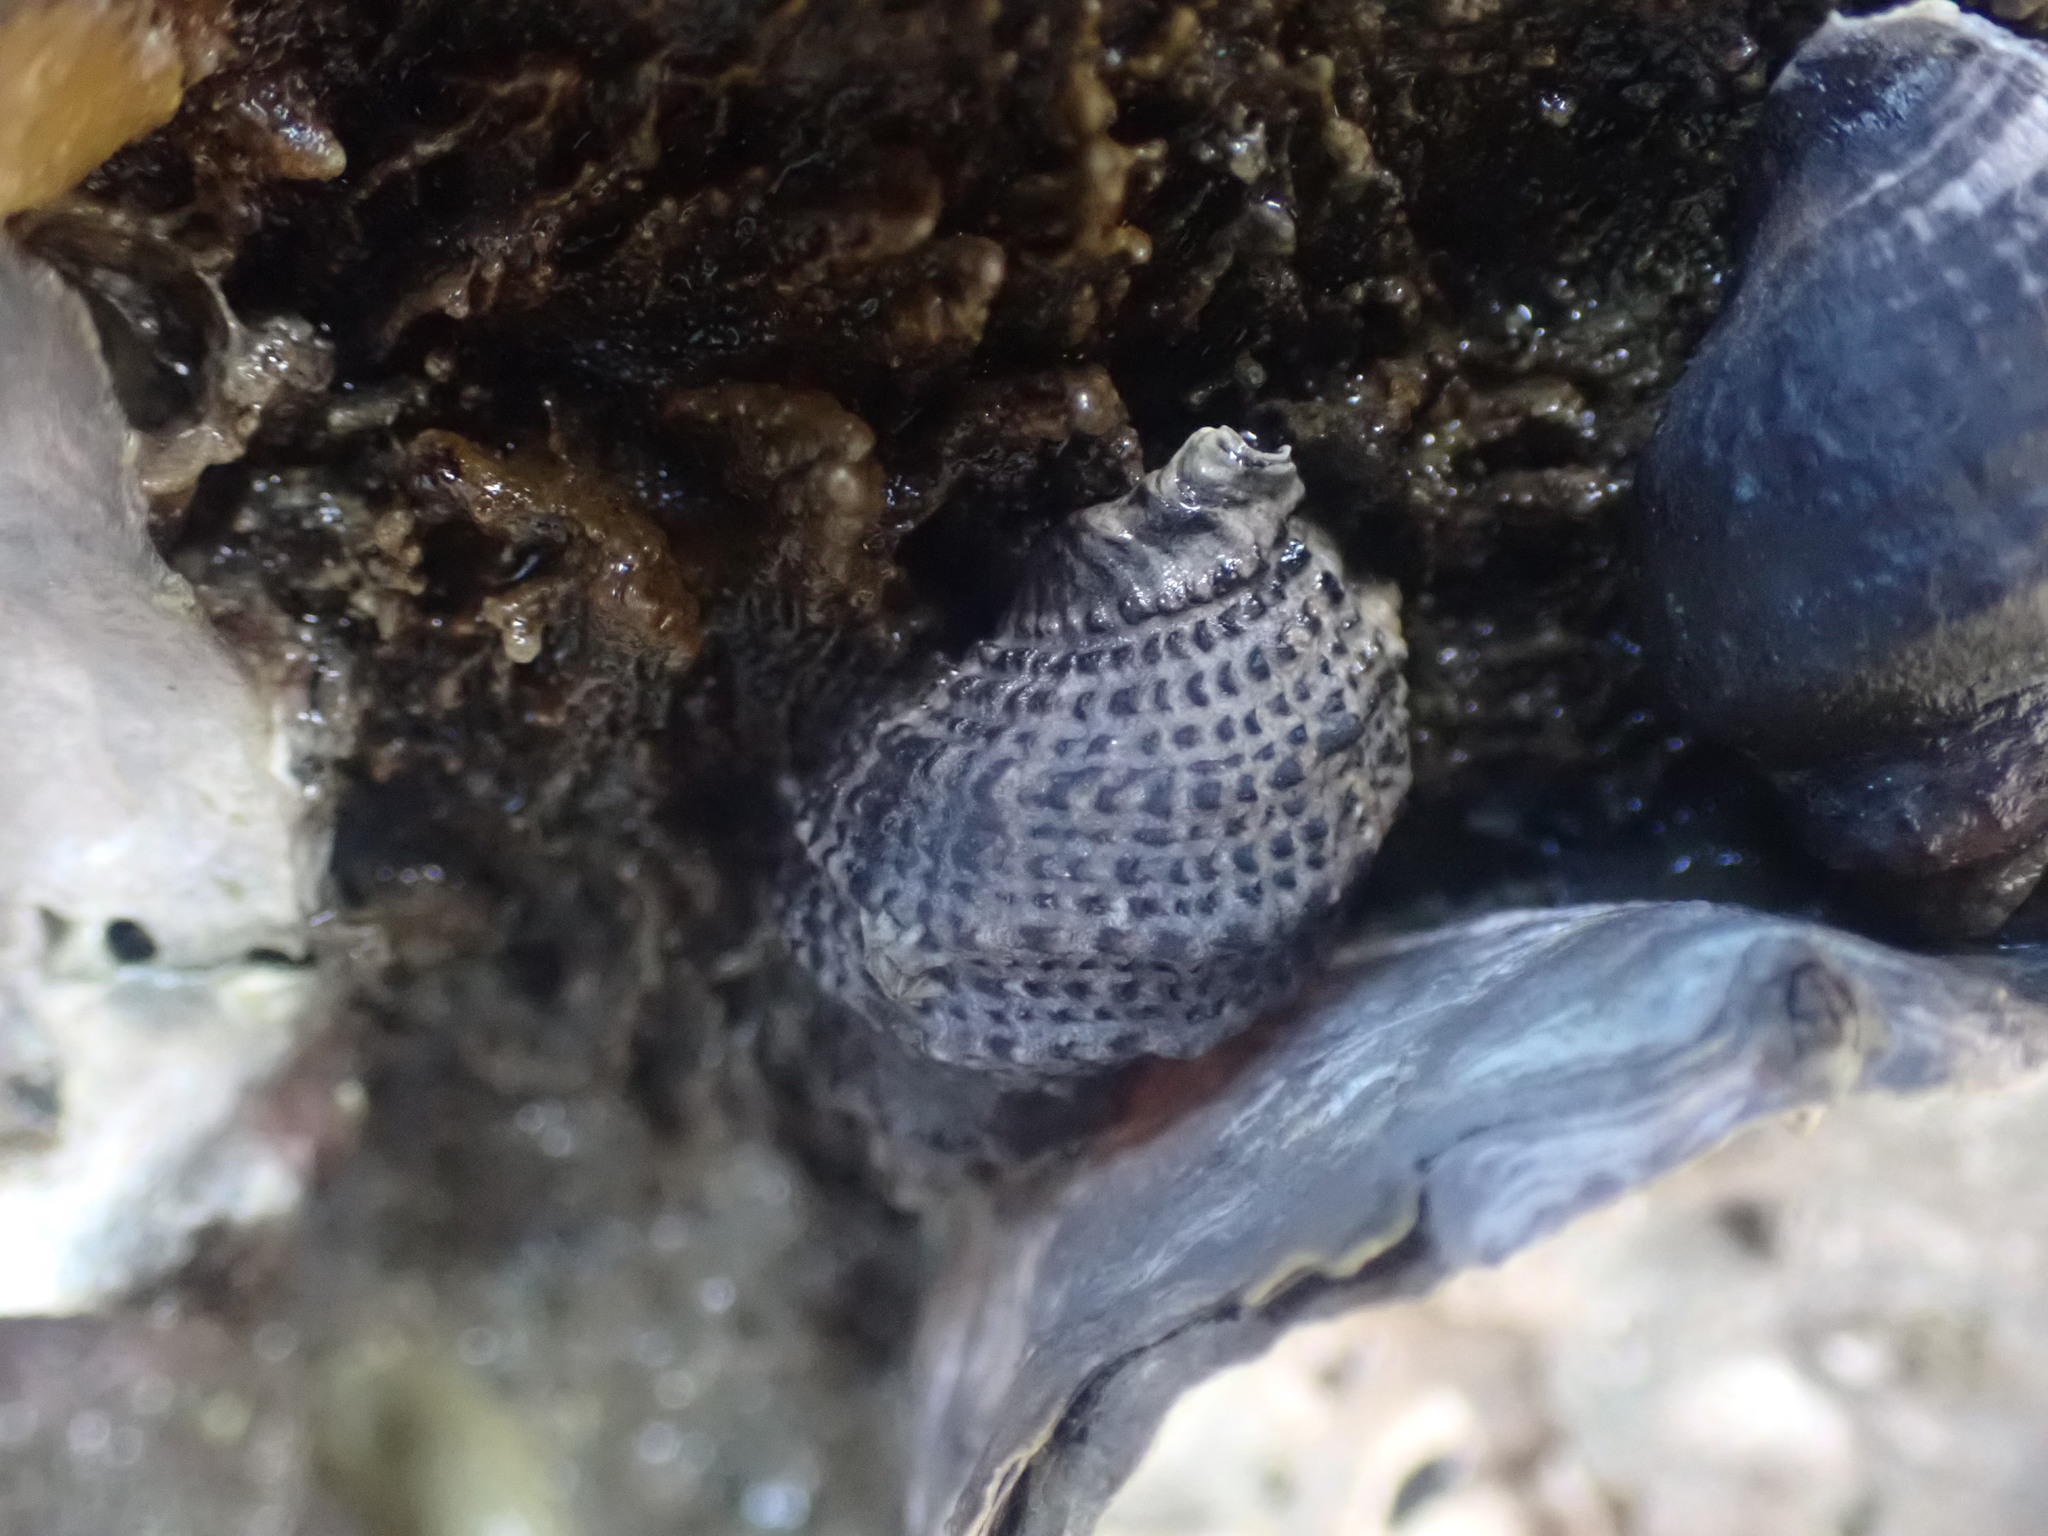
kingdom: Animalia
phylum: Mollusca
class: Gastropoda
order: Neogastropoda
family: Muricidae
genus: Haustrum
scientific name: Haustrum scobina
